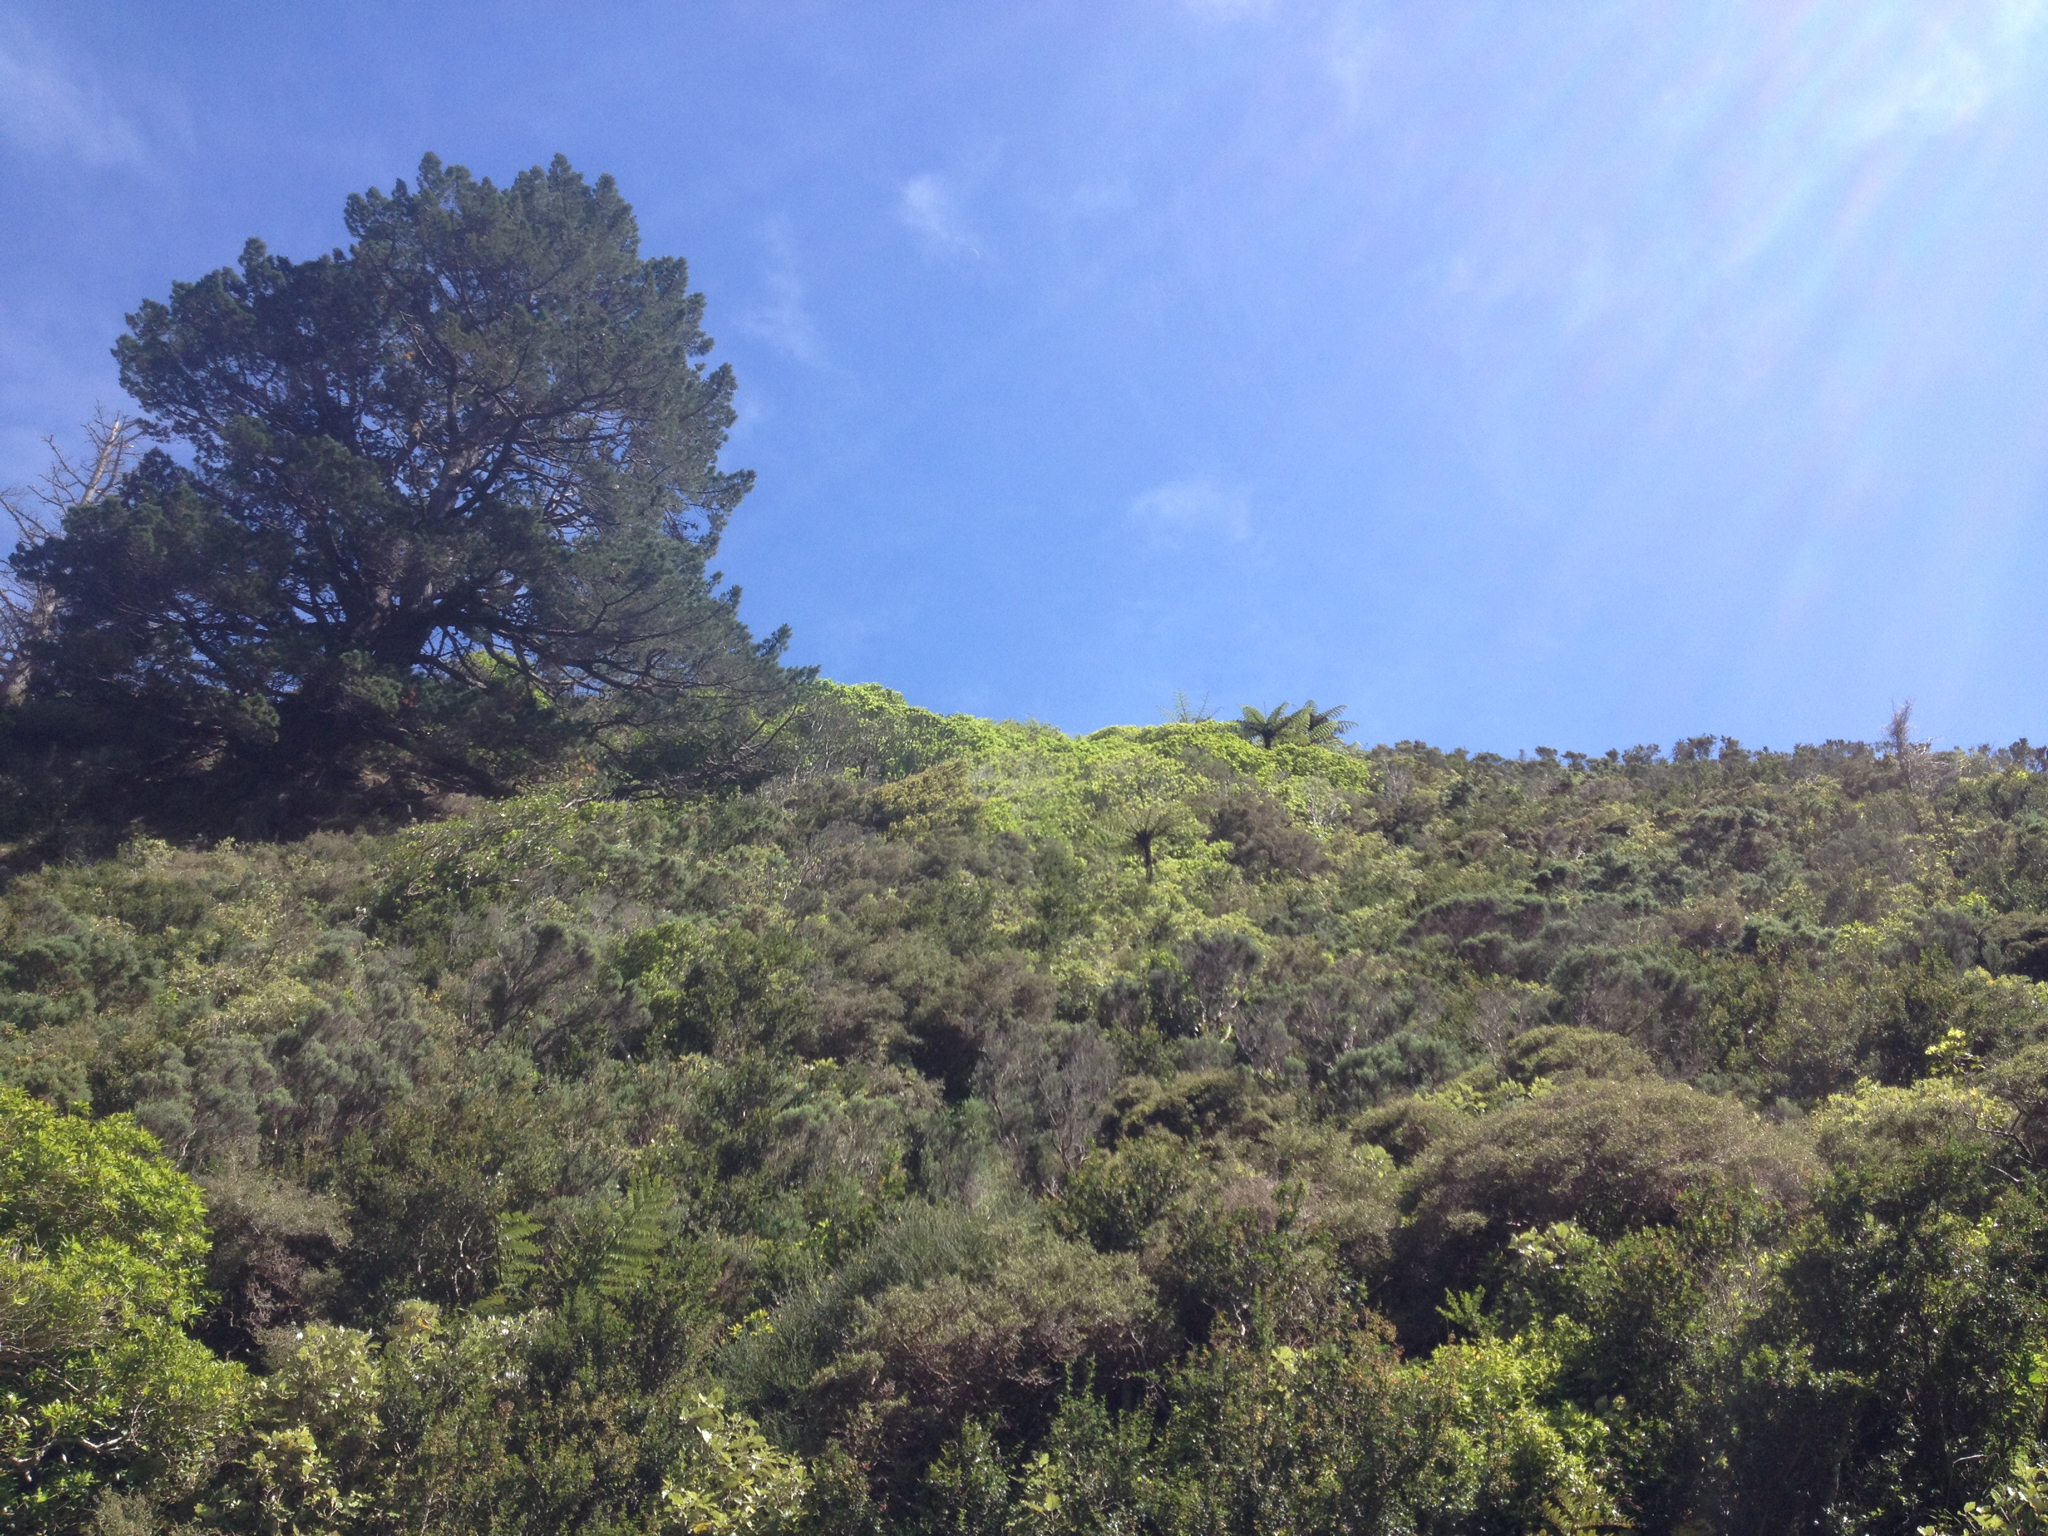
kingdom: Plantae
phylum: Tracheophyta
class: Pinopsida
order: Pinales
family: Pinaceae
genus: Pinus
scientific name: Pinus radiata
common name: Monterey pine
